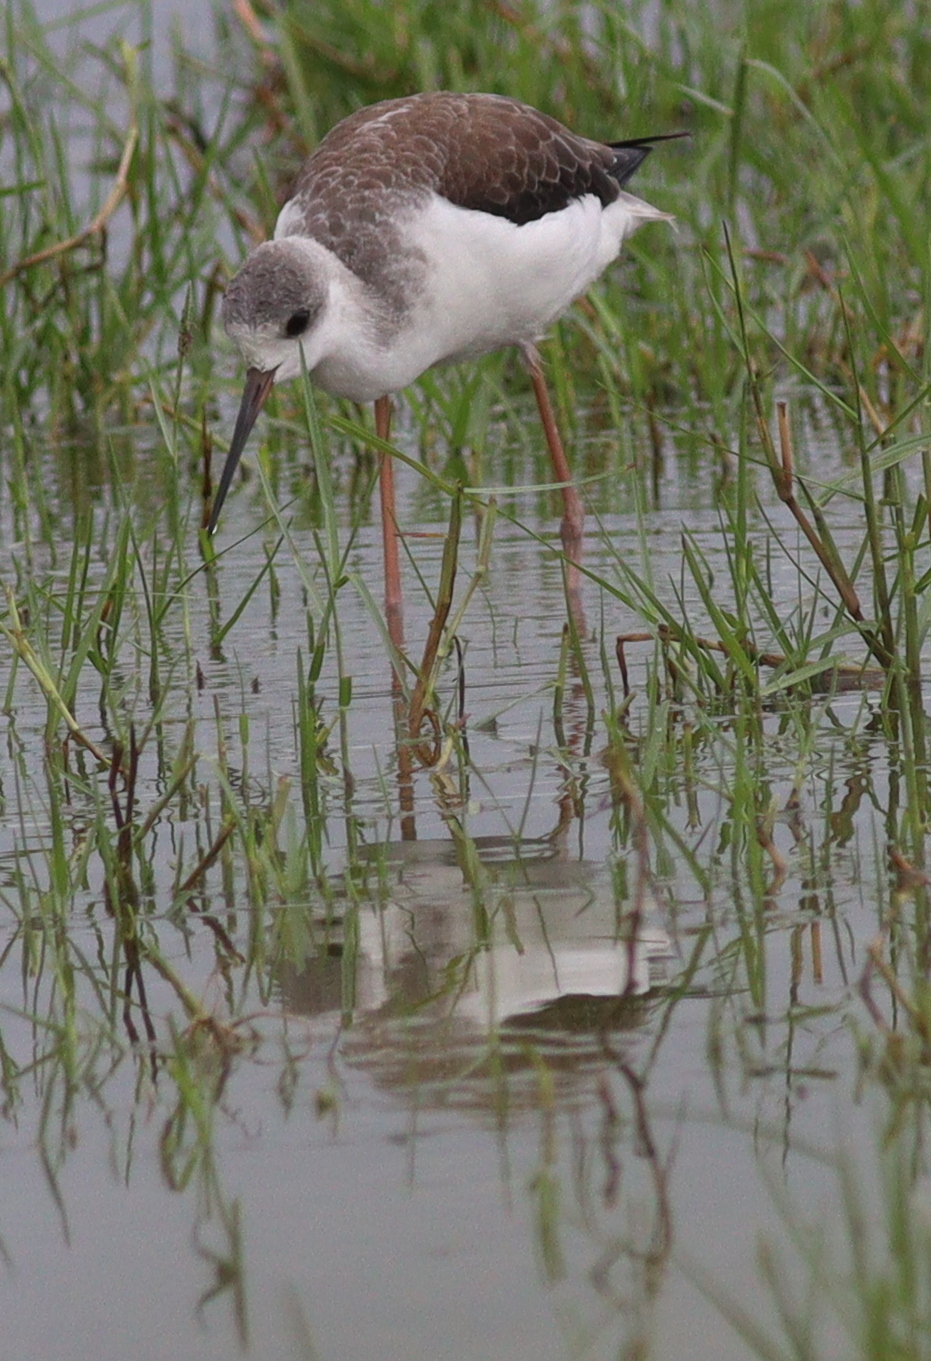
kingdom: Animalia
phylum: Chordata
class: Aves
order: Charadriiformes
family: Recurvirostridae
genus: Himantopus
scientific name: Himantopus himantopus
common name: Black-winged stilt
